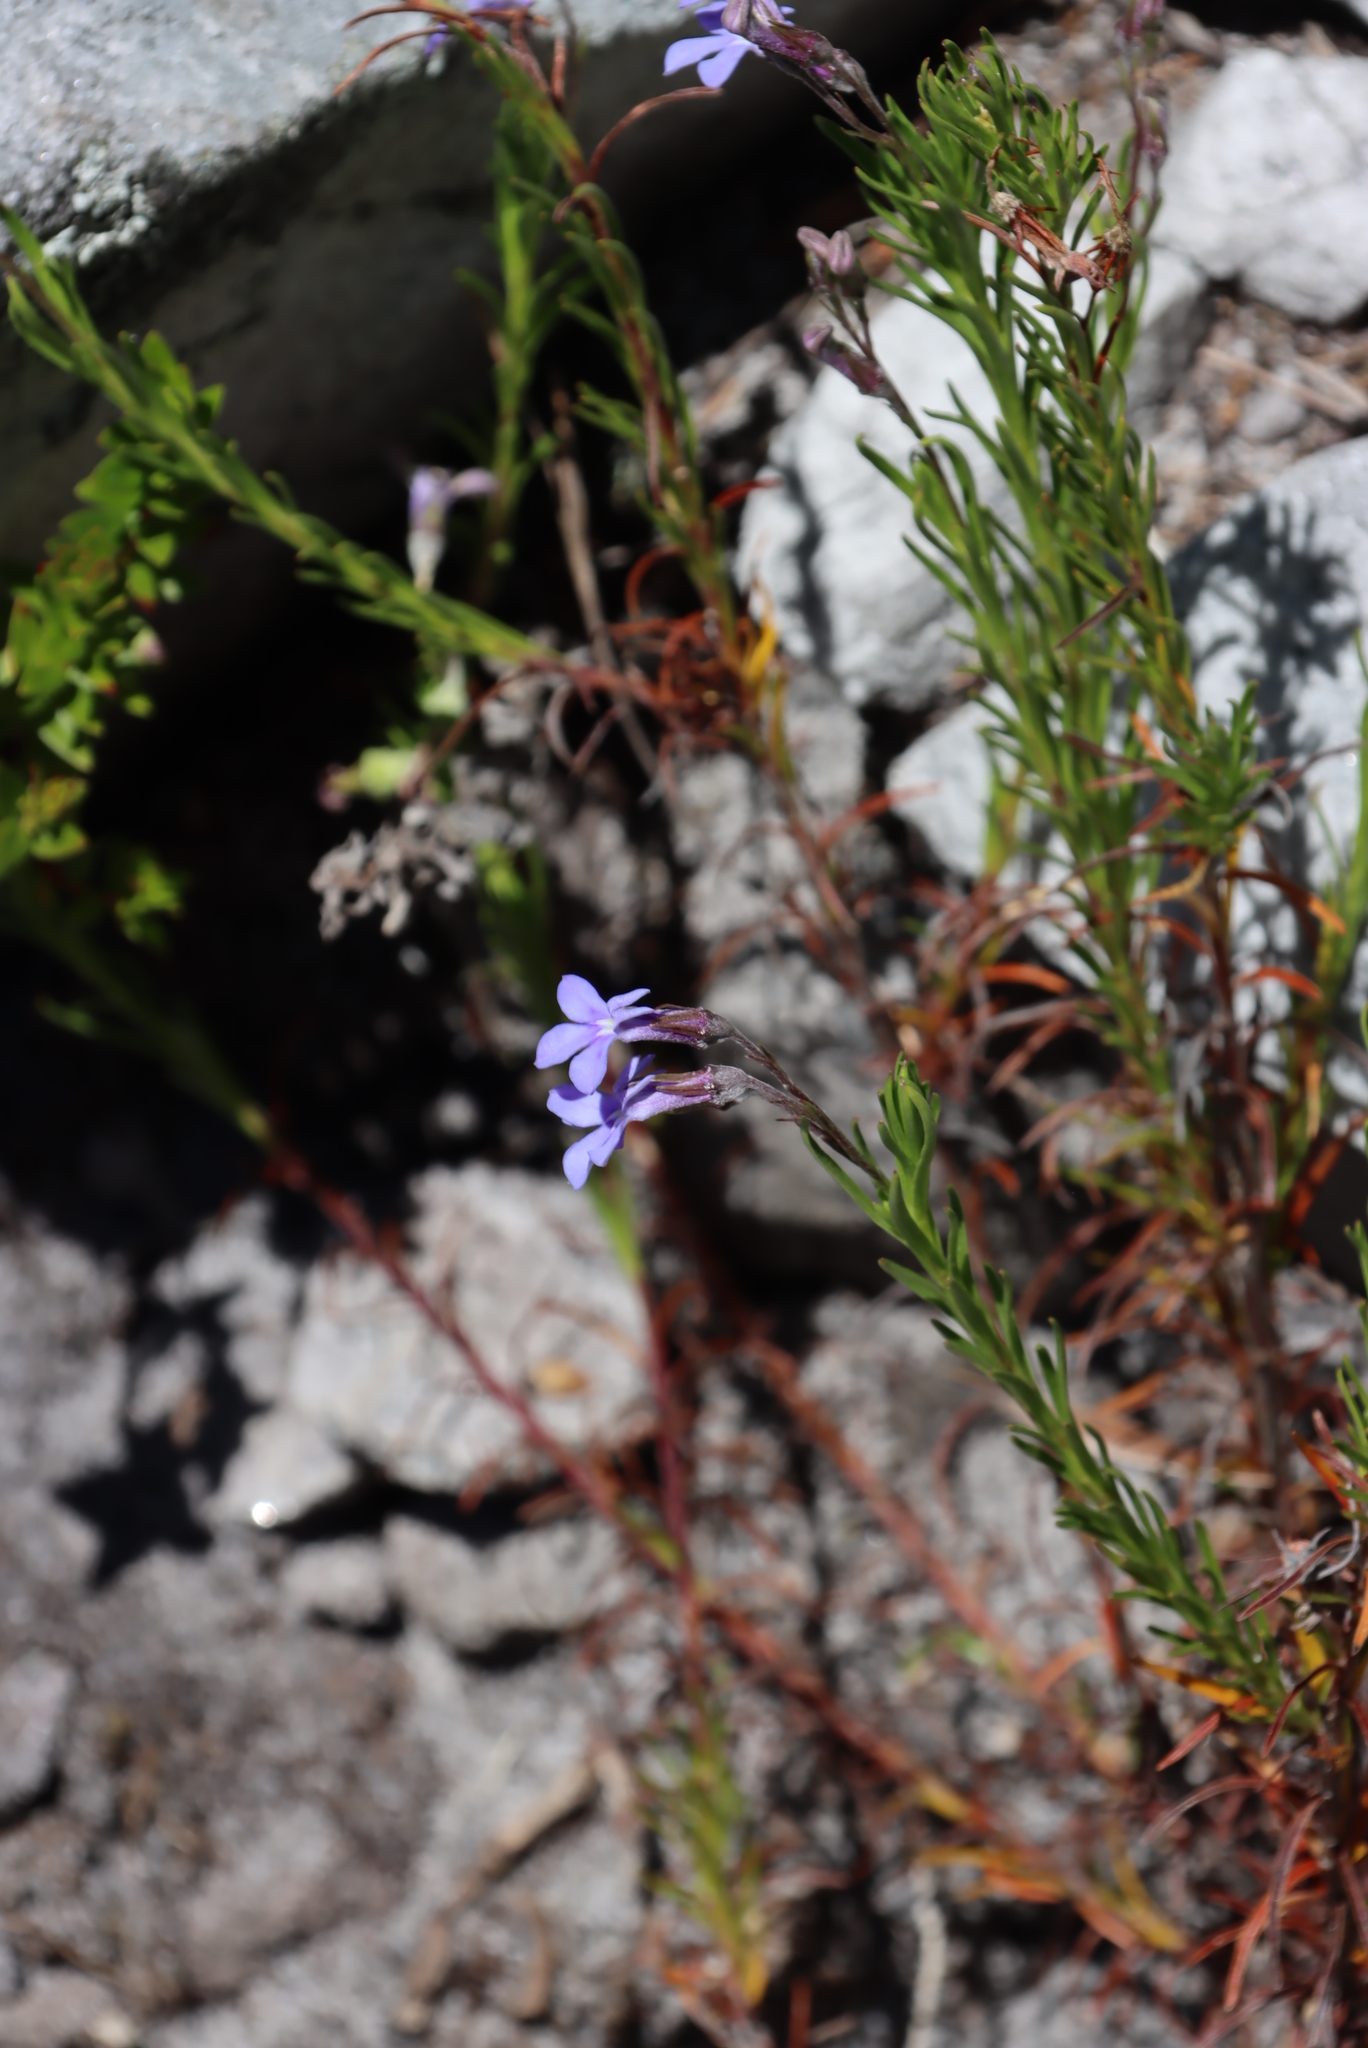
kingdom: Plantae
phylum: Tracheophyta
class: Magnoliopsida
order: Asterales
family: Campanulaceae
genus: Lobelia
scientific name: Lobelia pinifolia
